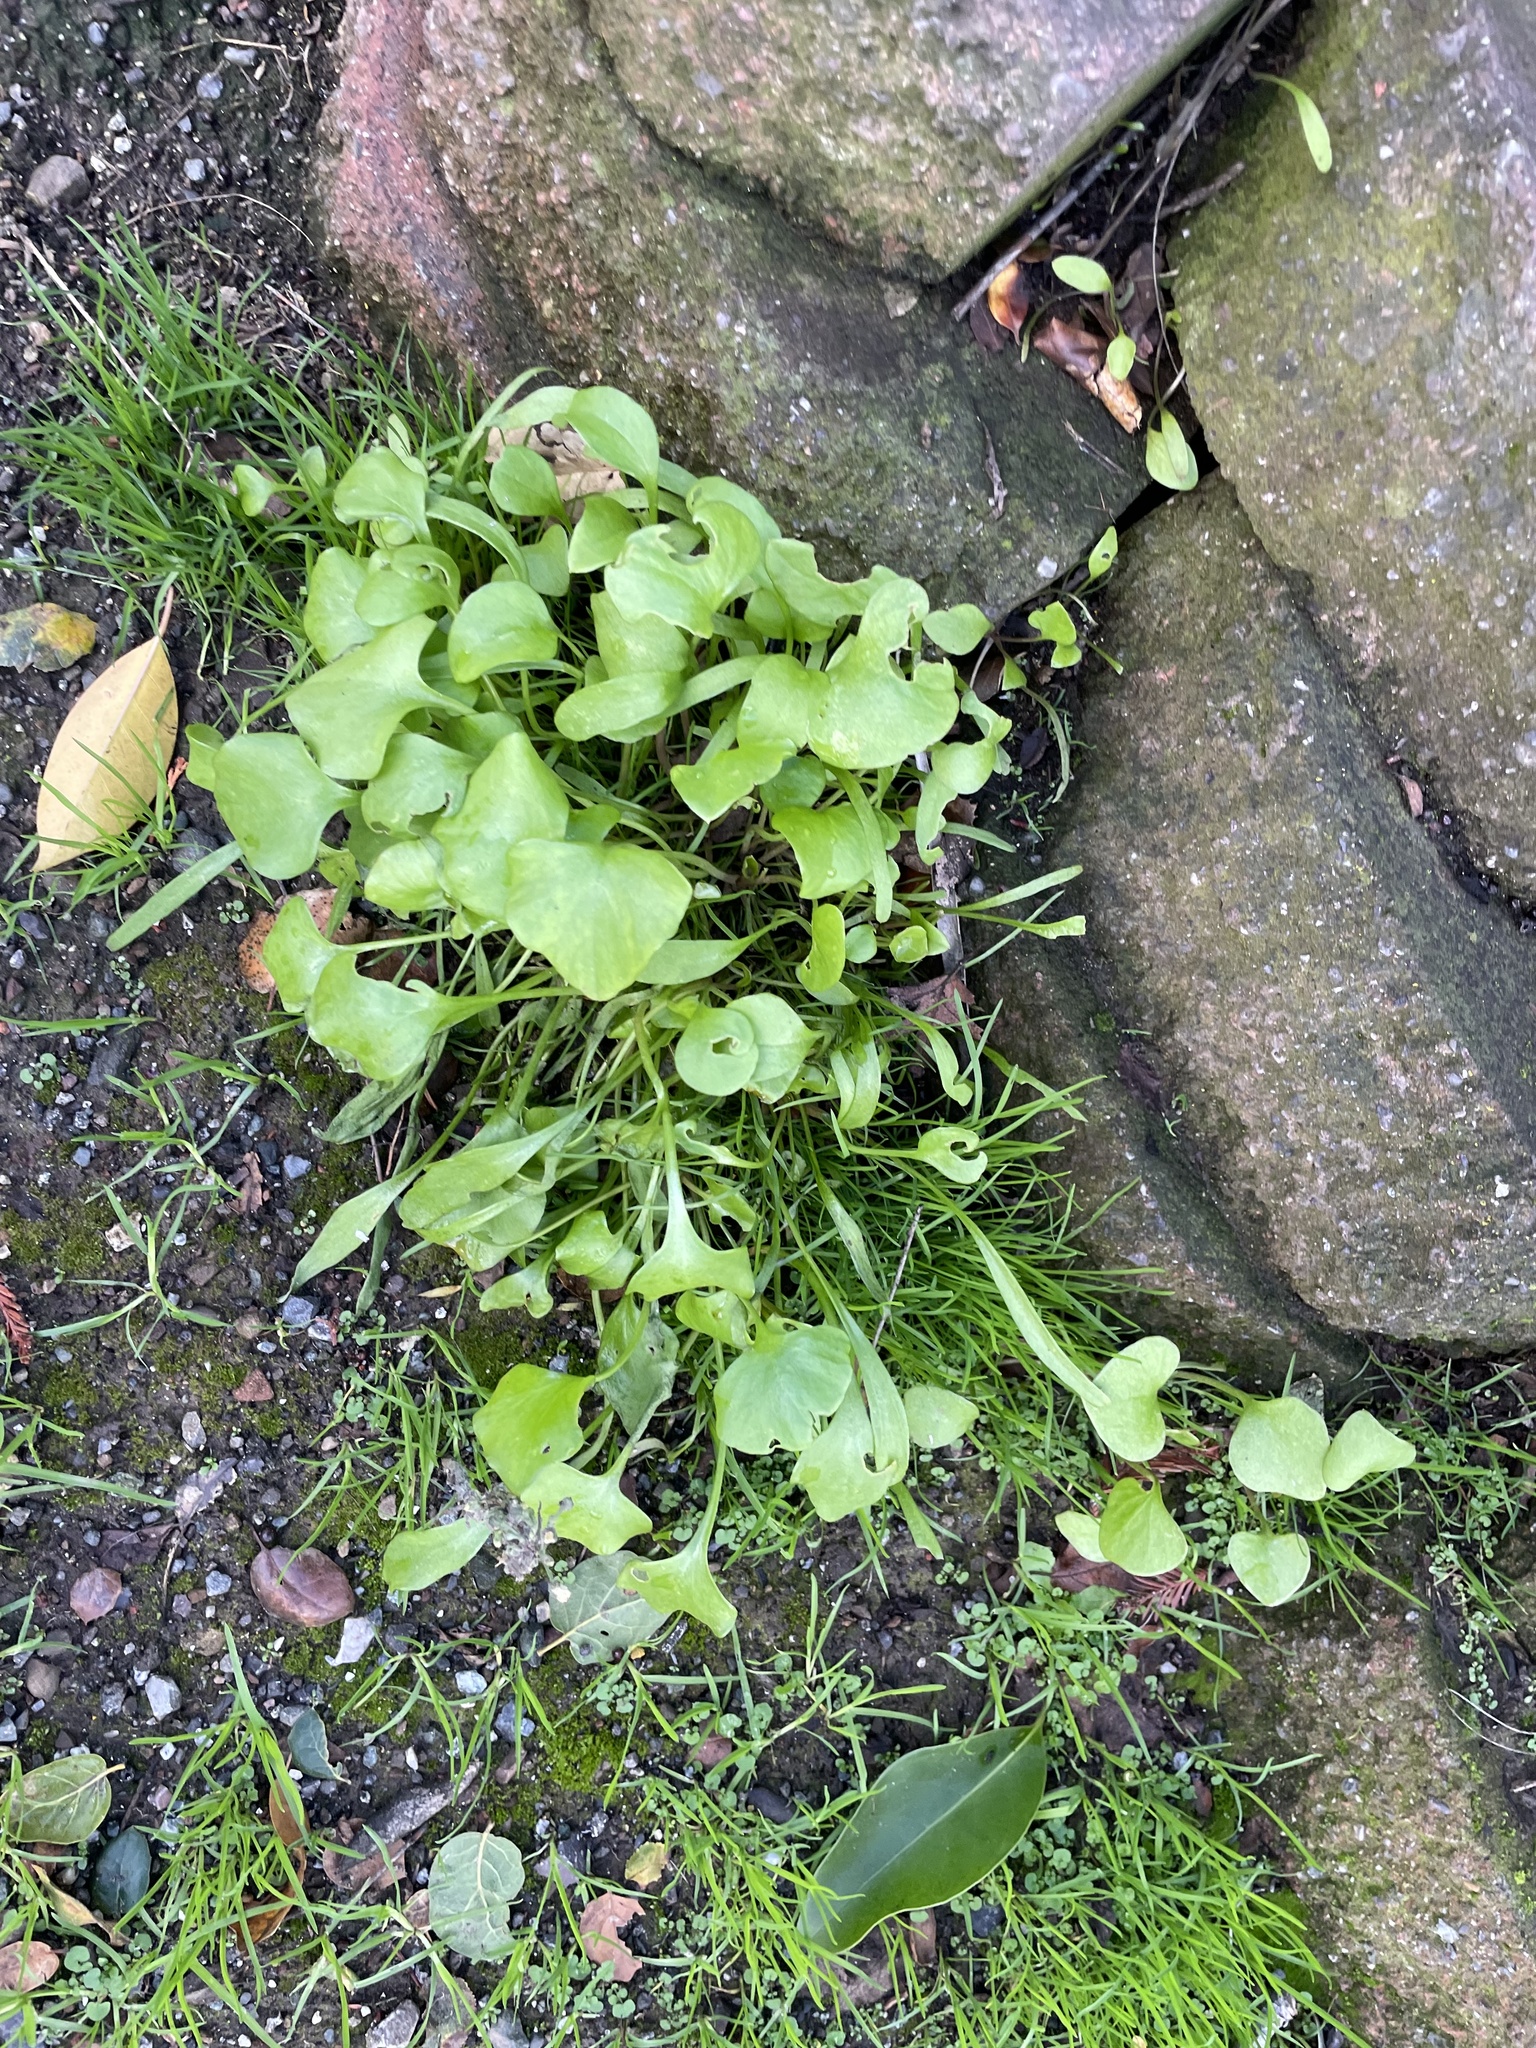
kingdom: Plantae
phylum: Tracheophyta
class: Magnoliopsida
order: Caryophyllales
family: Montiaceae
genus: Claytonia
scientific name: Claytonia perfoliata
